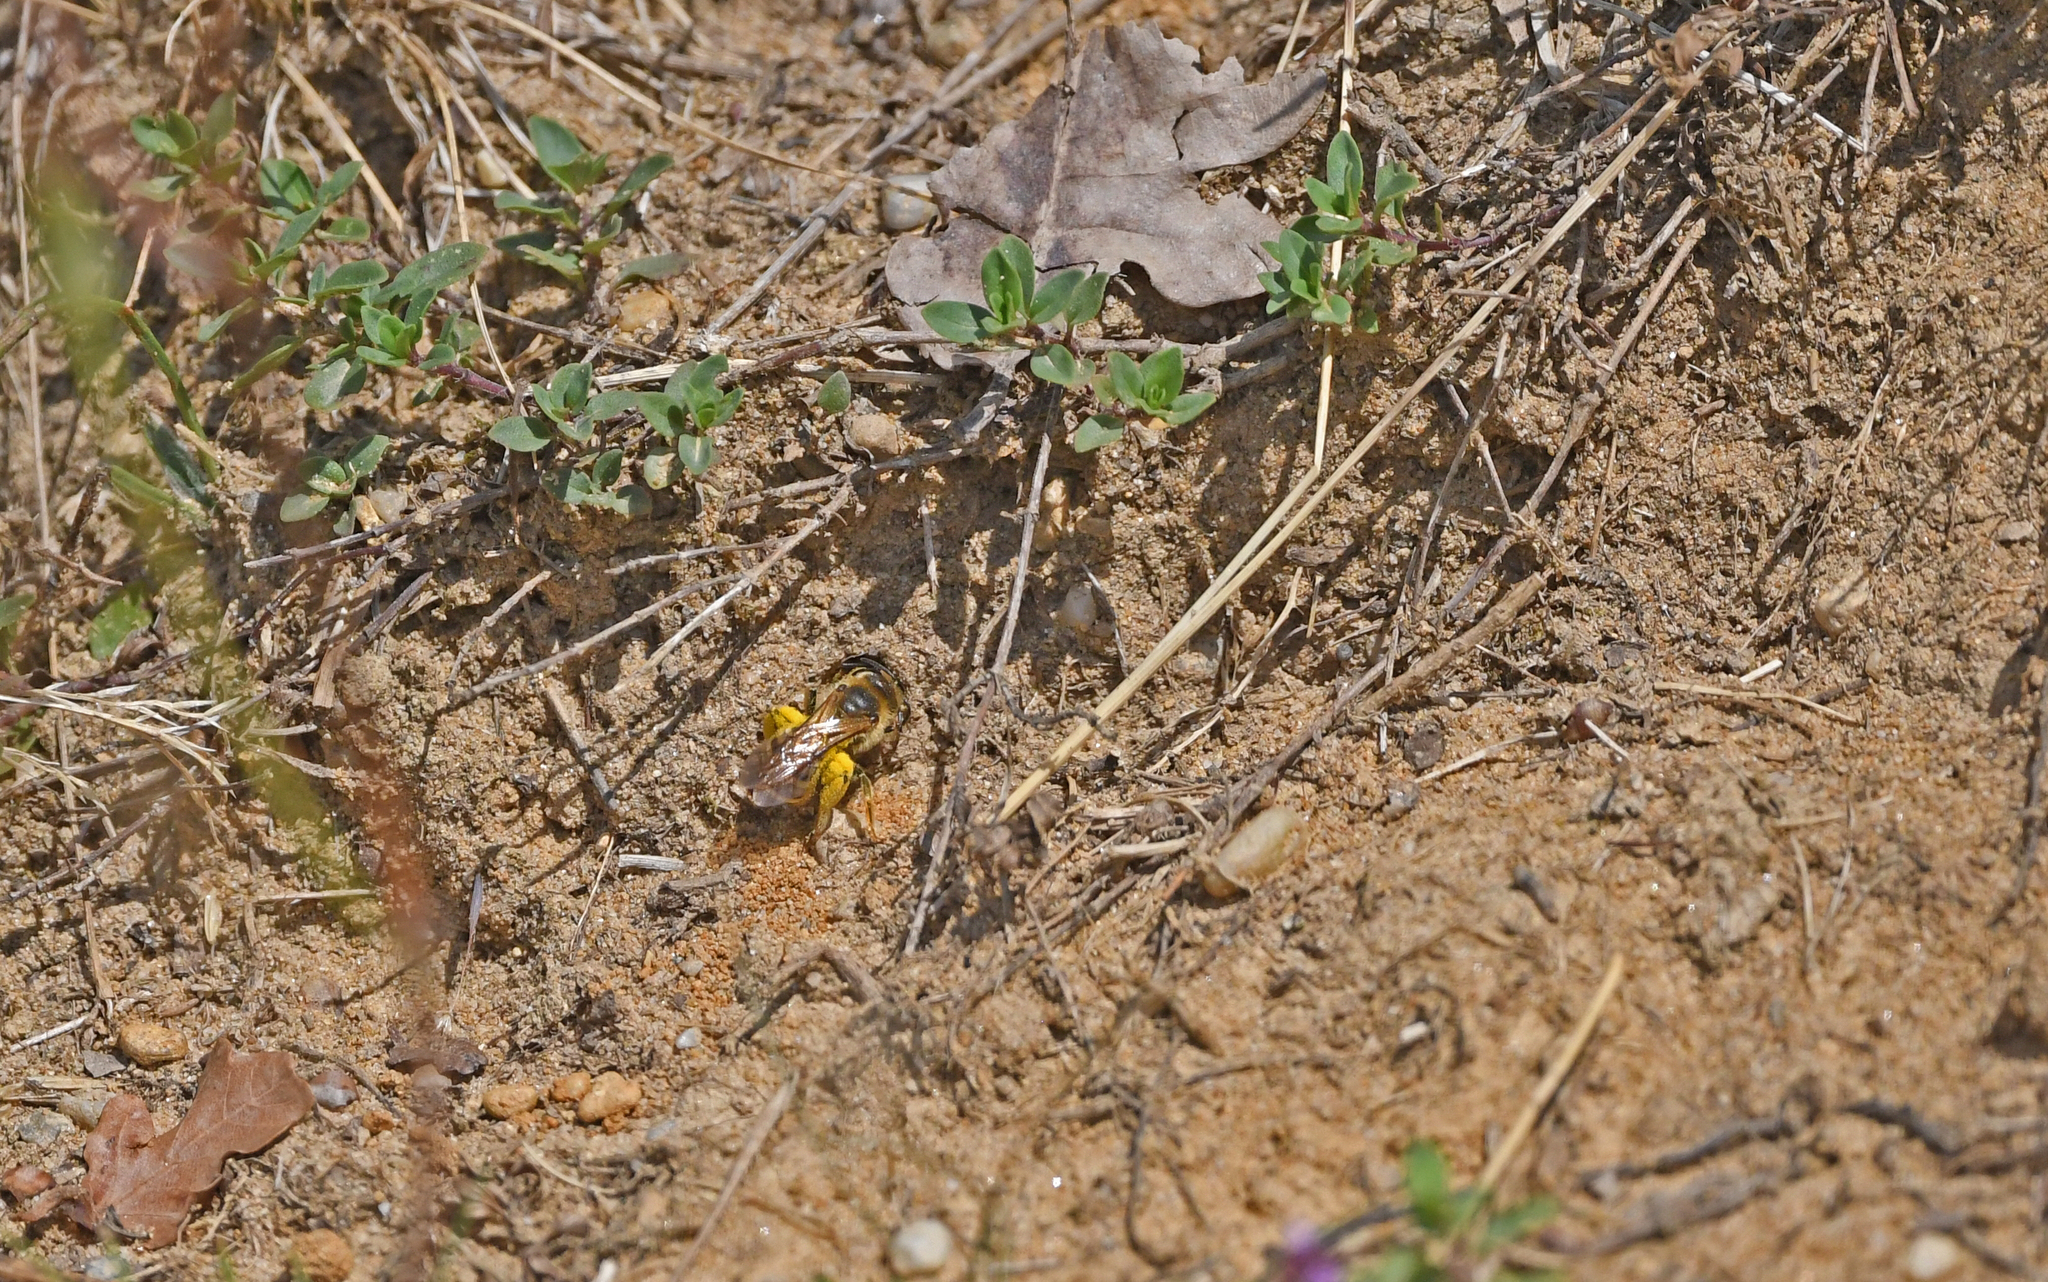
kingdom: Animalia
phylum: Arthropoda
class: Insecta
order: Hymenoptera
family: Halictidae
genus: Halictus
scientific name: Halictus scabiosae
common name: Great banded furrow bee
